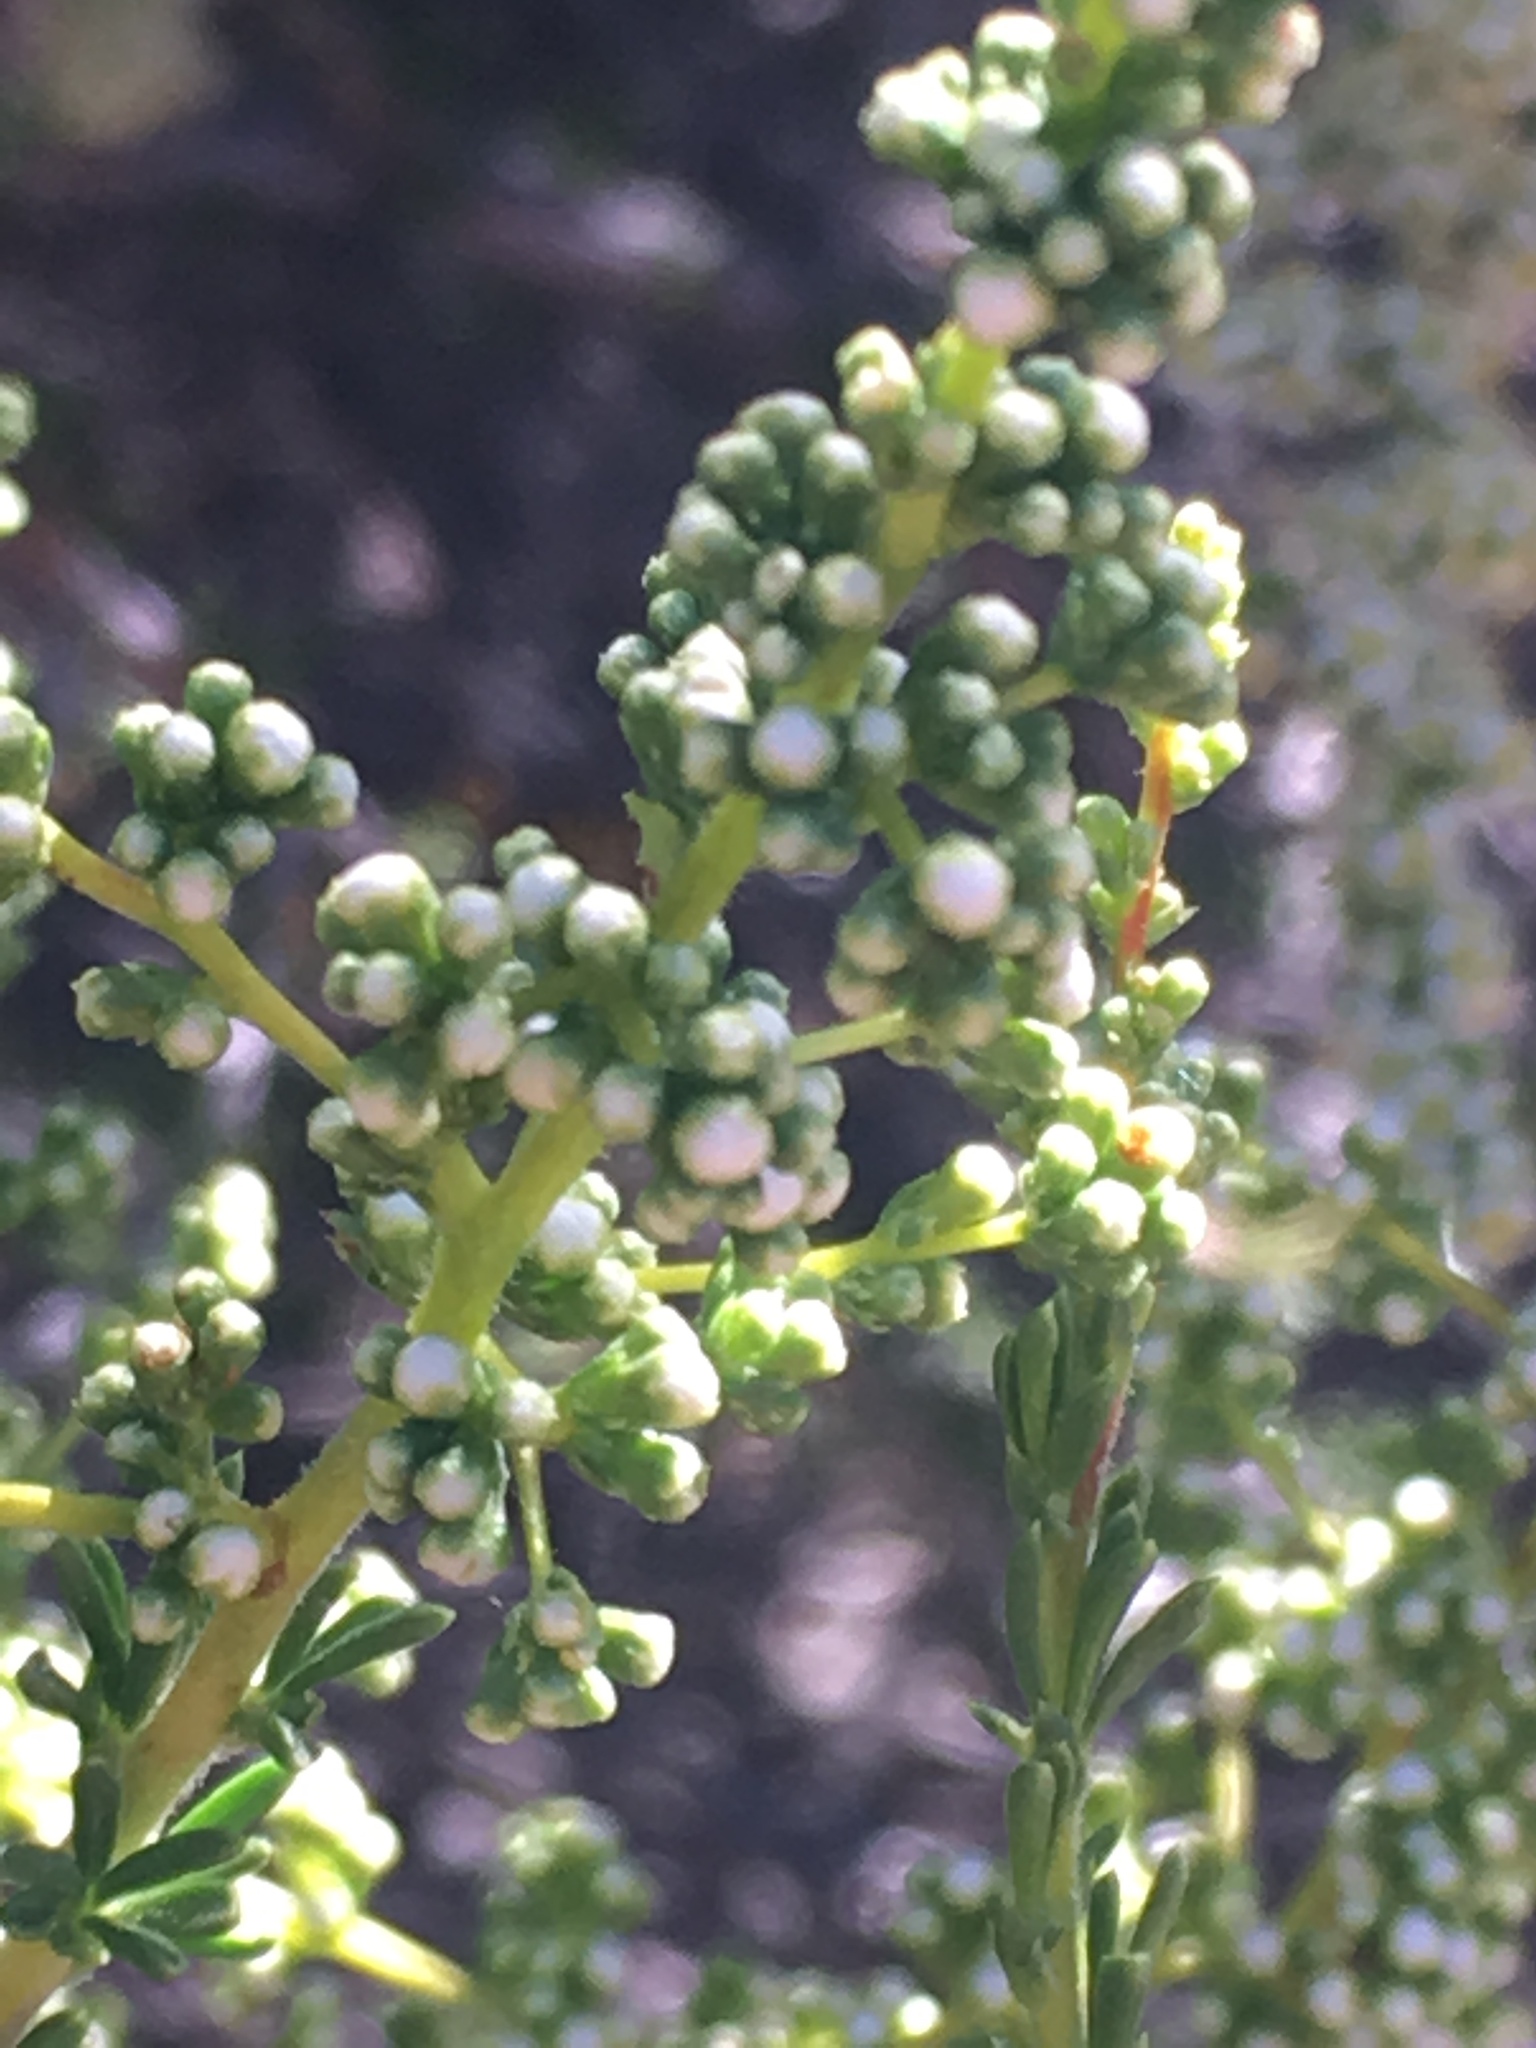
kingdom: Plantae
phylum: Tracheophyta
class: Magnoliopsida
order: Rosales
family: Rosaceae
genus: Adenostoma
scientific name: Adenostoma fasciculatum
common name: Chamise
